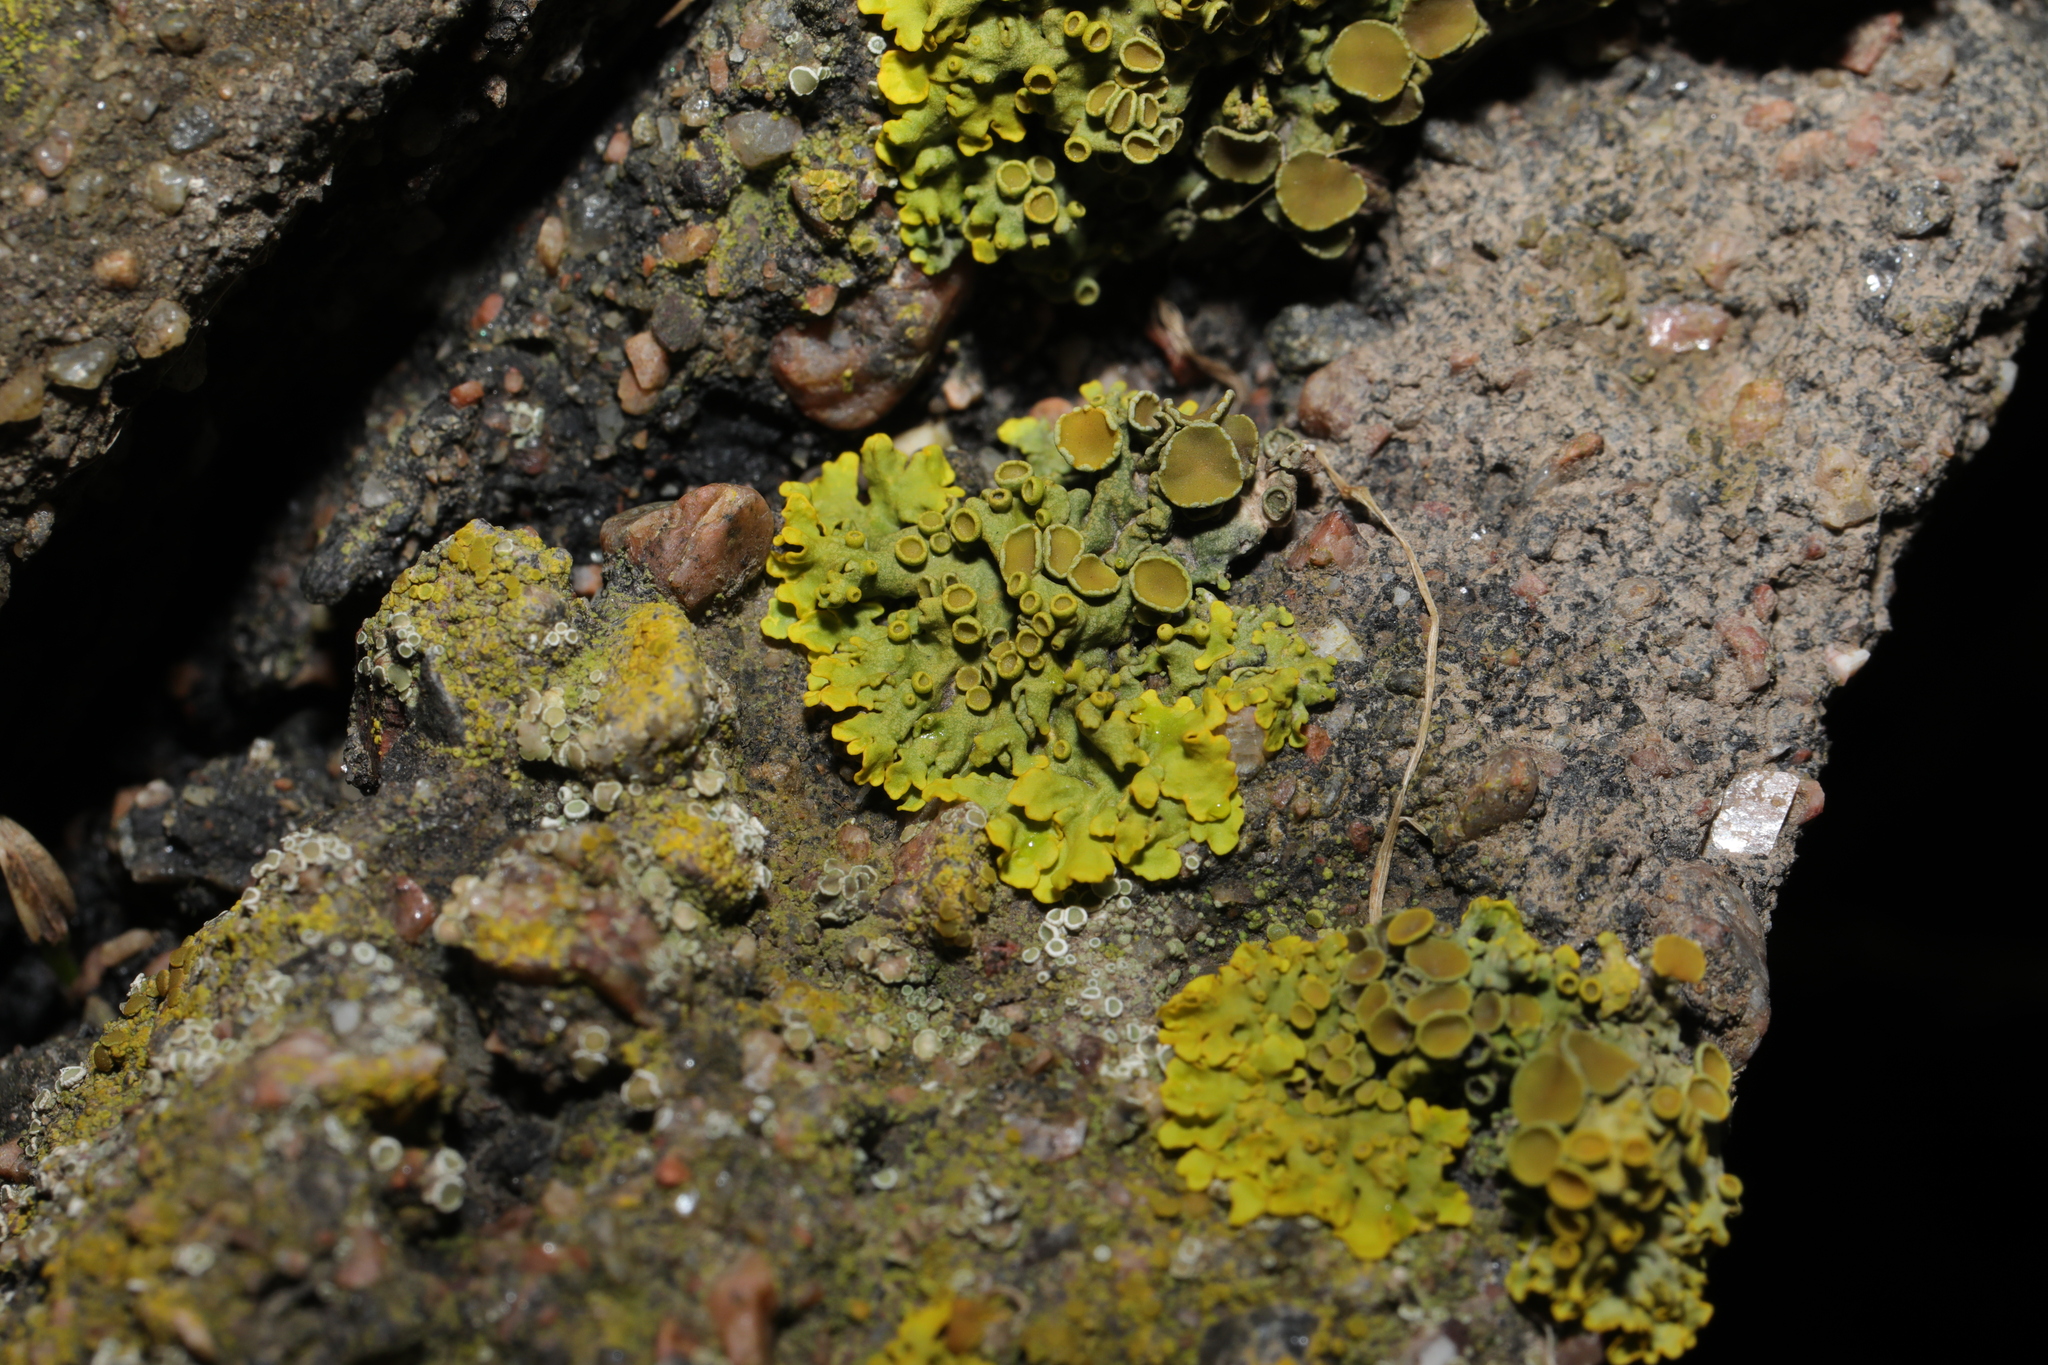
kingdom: Fungi
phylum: Ascomycota
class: Lecanoromycetes
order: Teloschistales
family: Teloschistaceae
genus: Xanthoria
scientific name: Xanthoria parietina
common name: Common orange lichen
